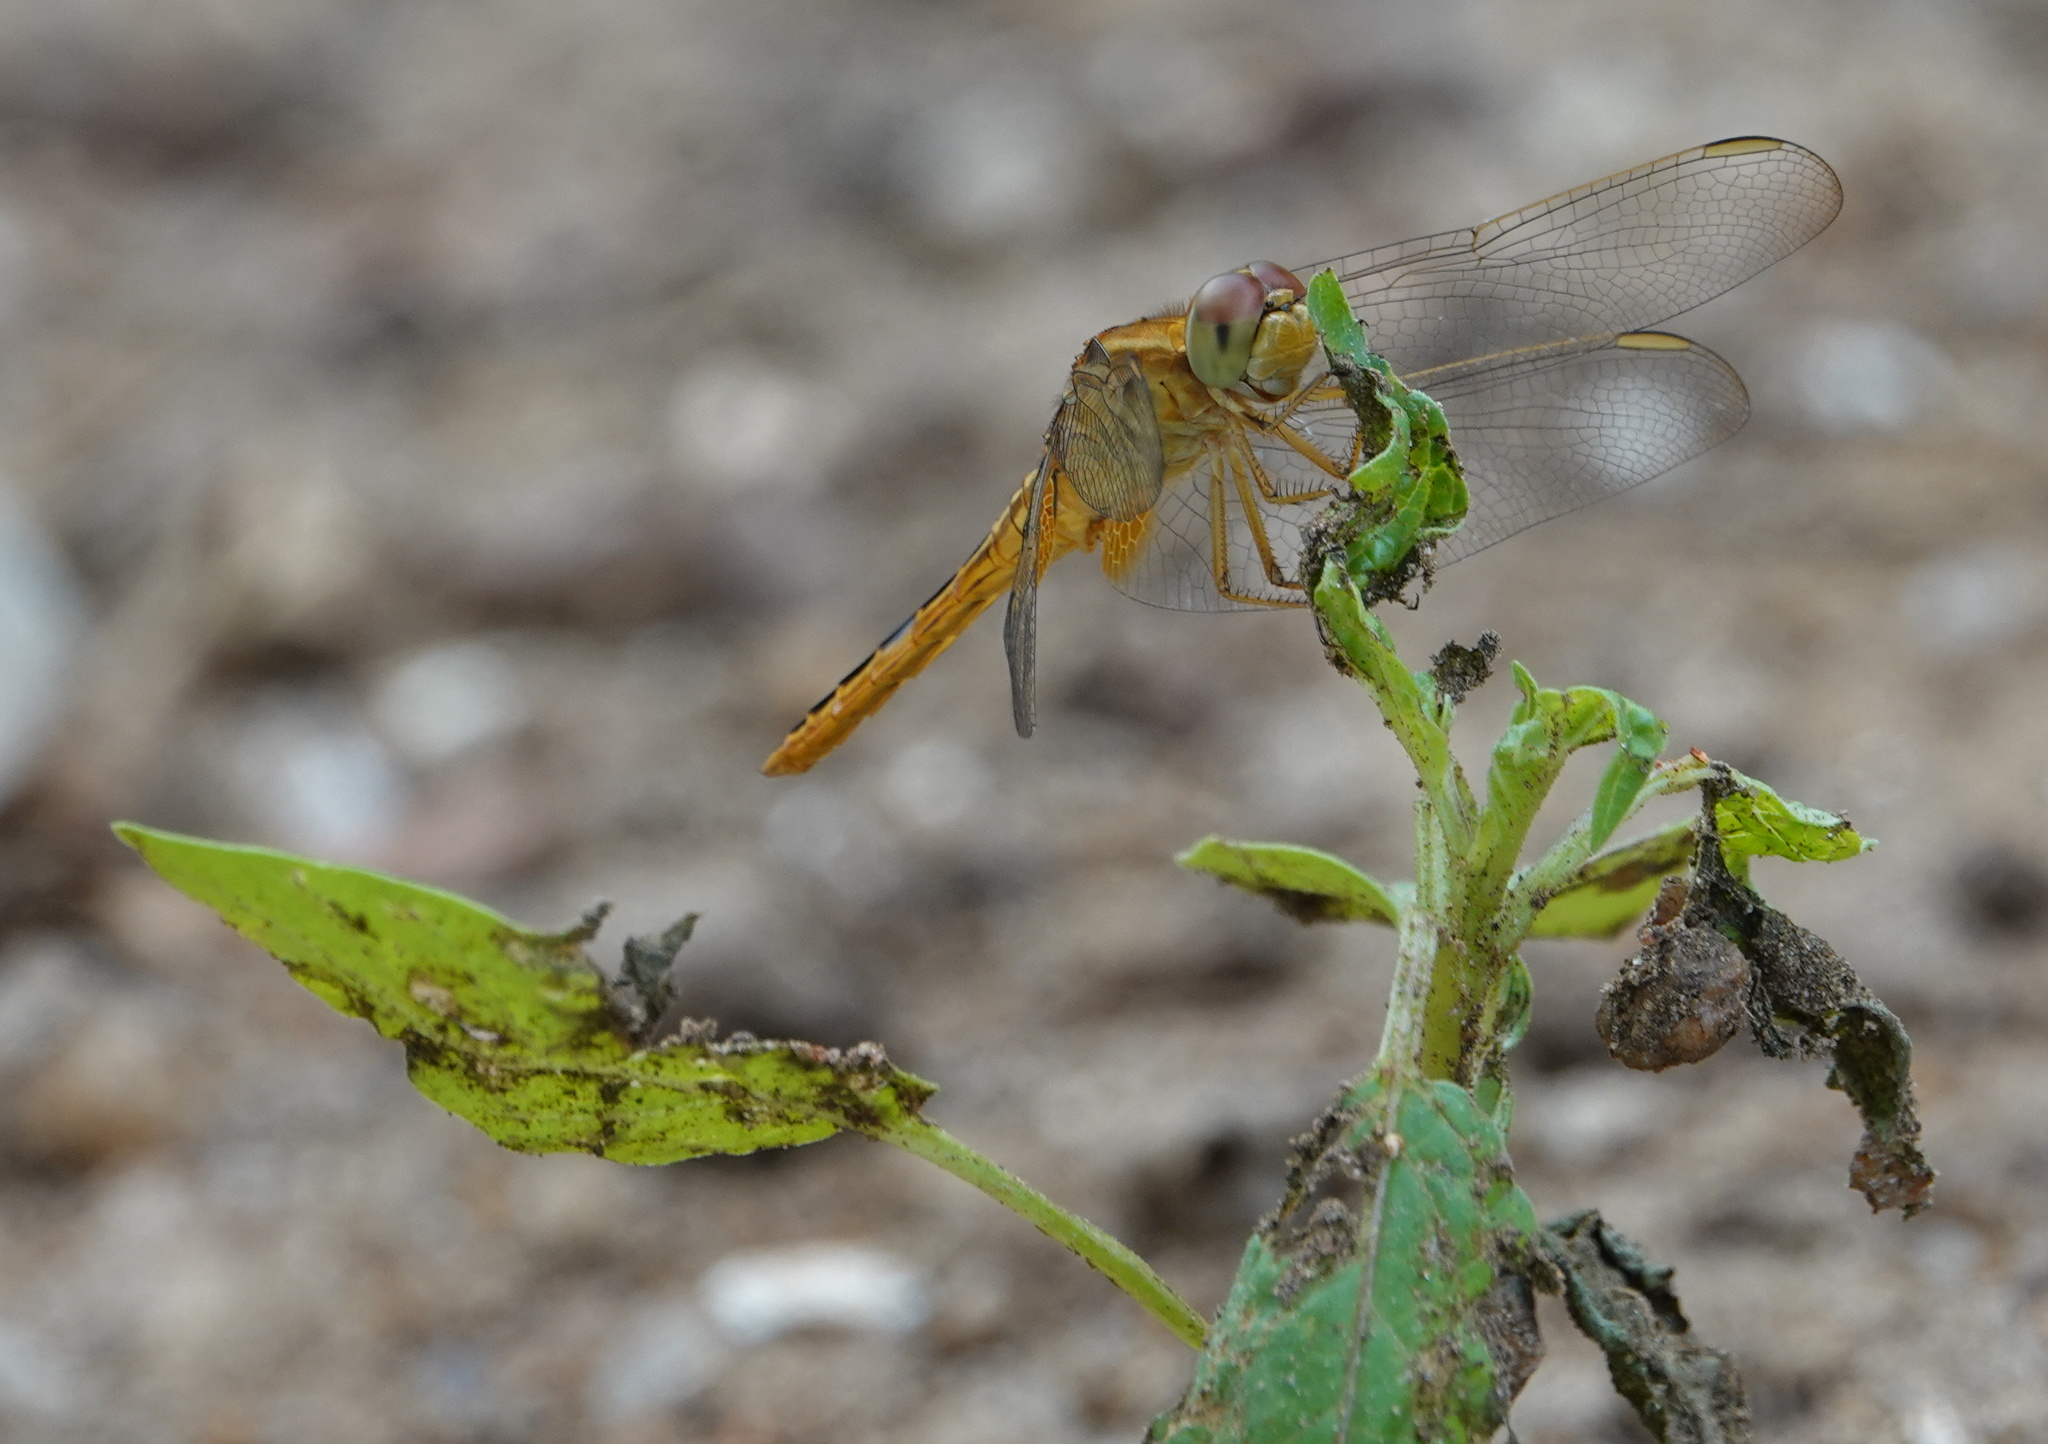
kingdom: Animalia
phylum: Arthropoda
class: Insecta
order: Odonata
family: Libellulidae
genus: Crocothemis
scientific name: Crocothemis servilia
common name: Scarlet skimmer
